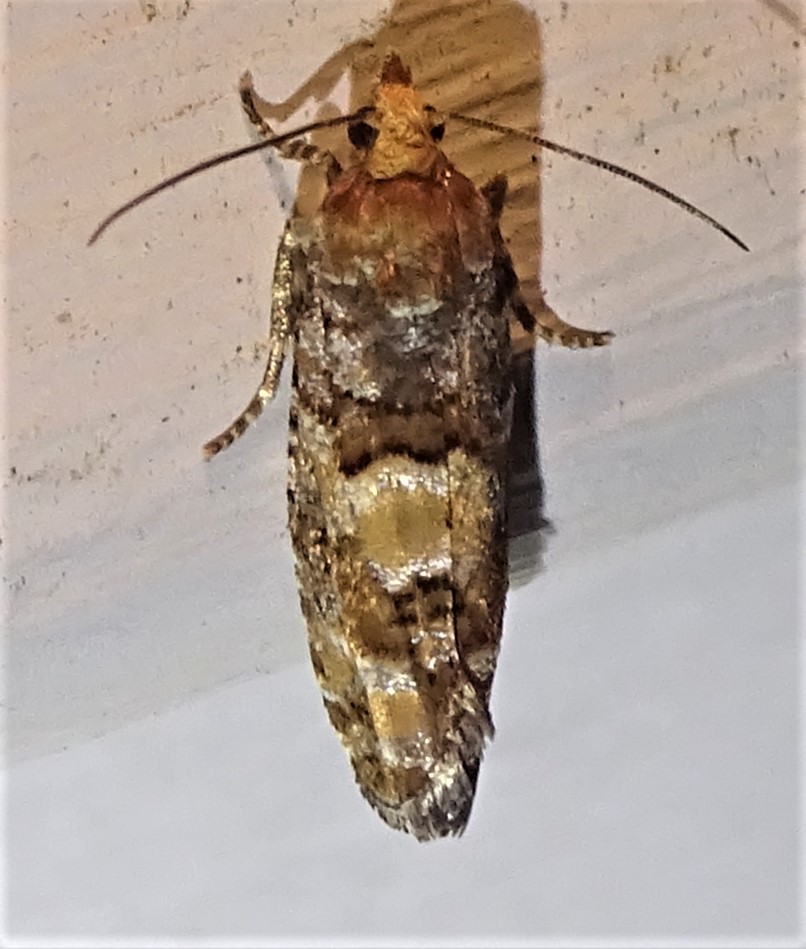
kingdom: Animalia
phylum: Arthropoda
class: Insecta
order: Lepidoptera
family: Tortricidae
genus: Eucopina
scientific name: Eucopina tocullionana
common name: White pinecone borer moth
